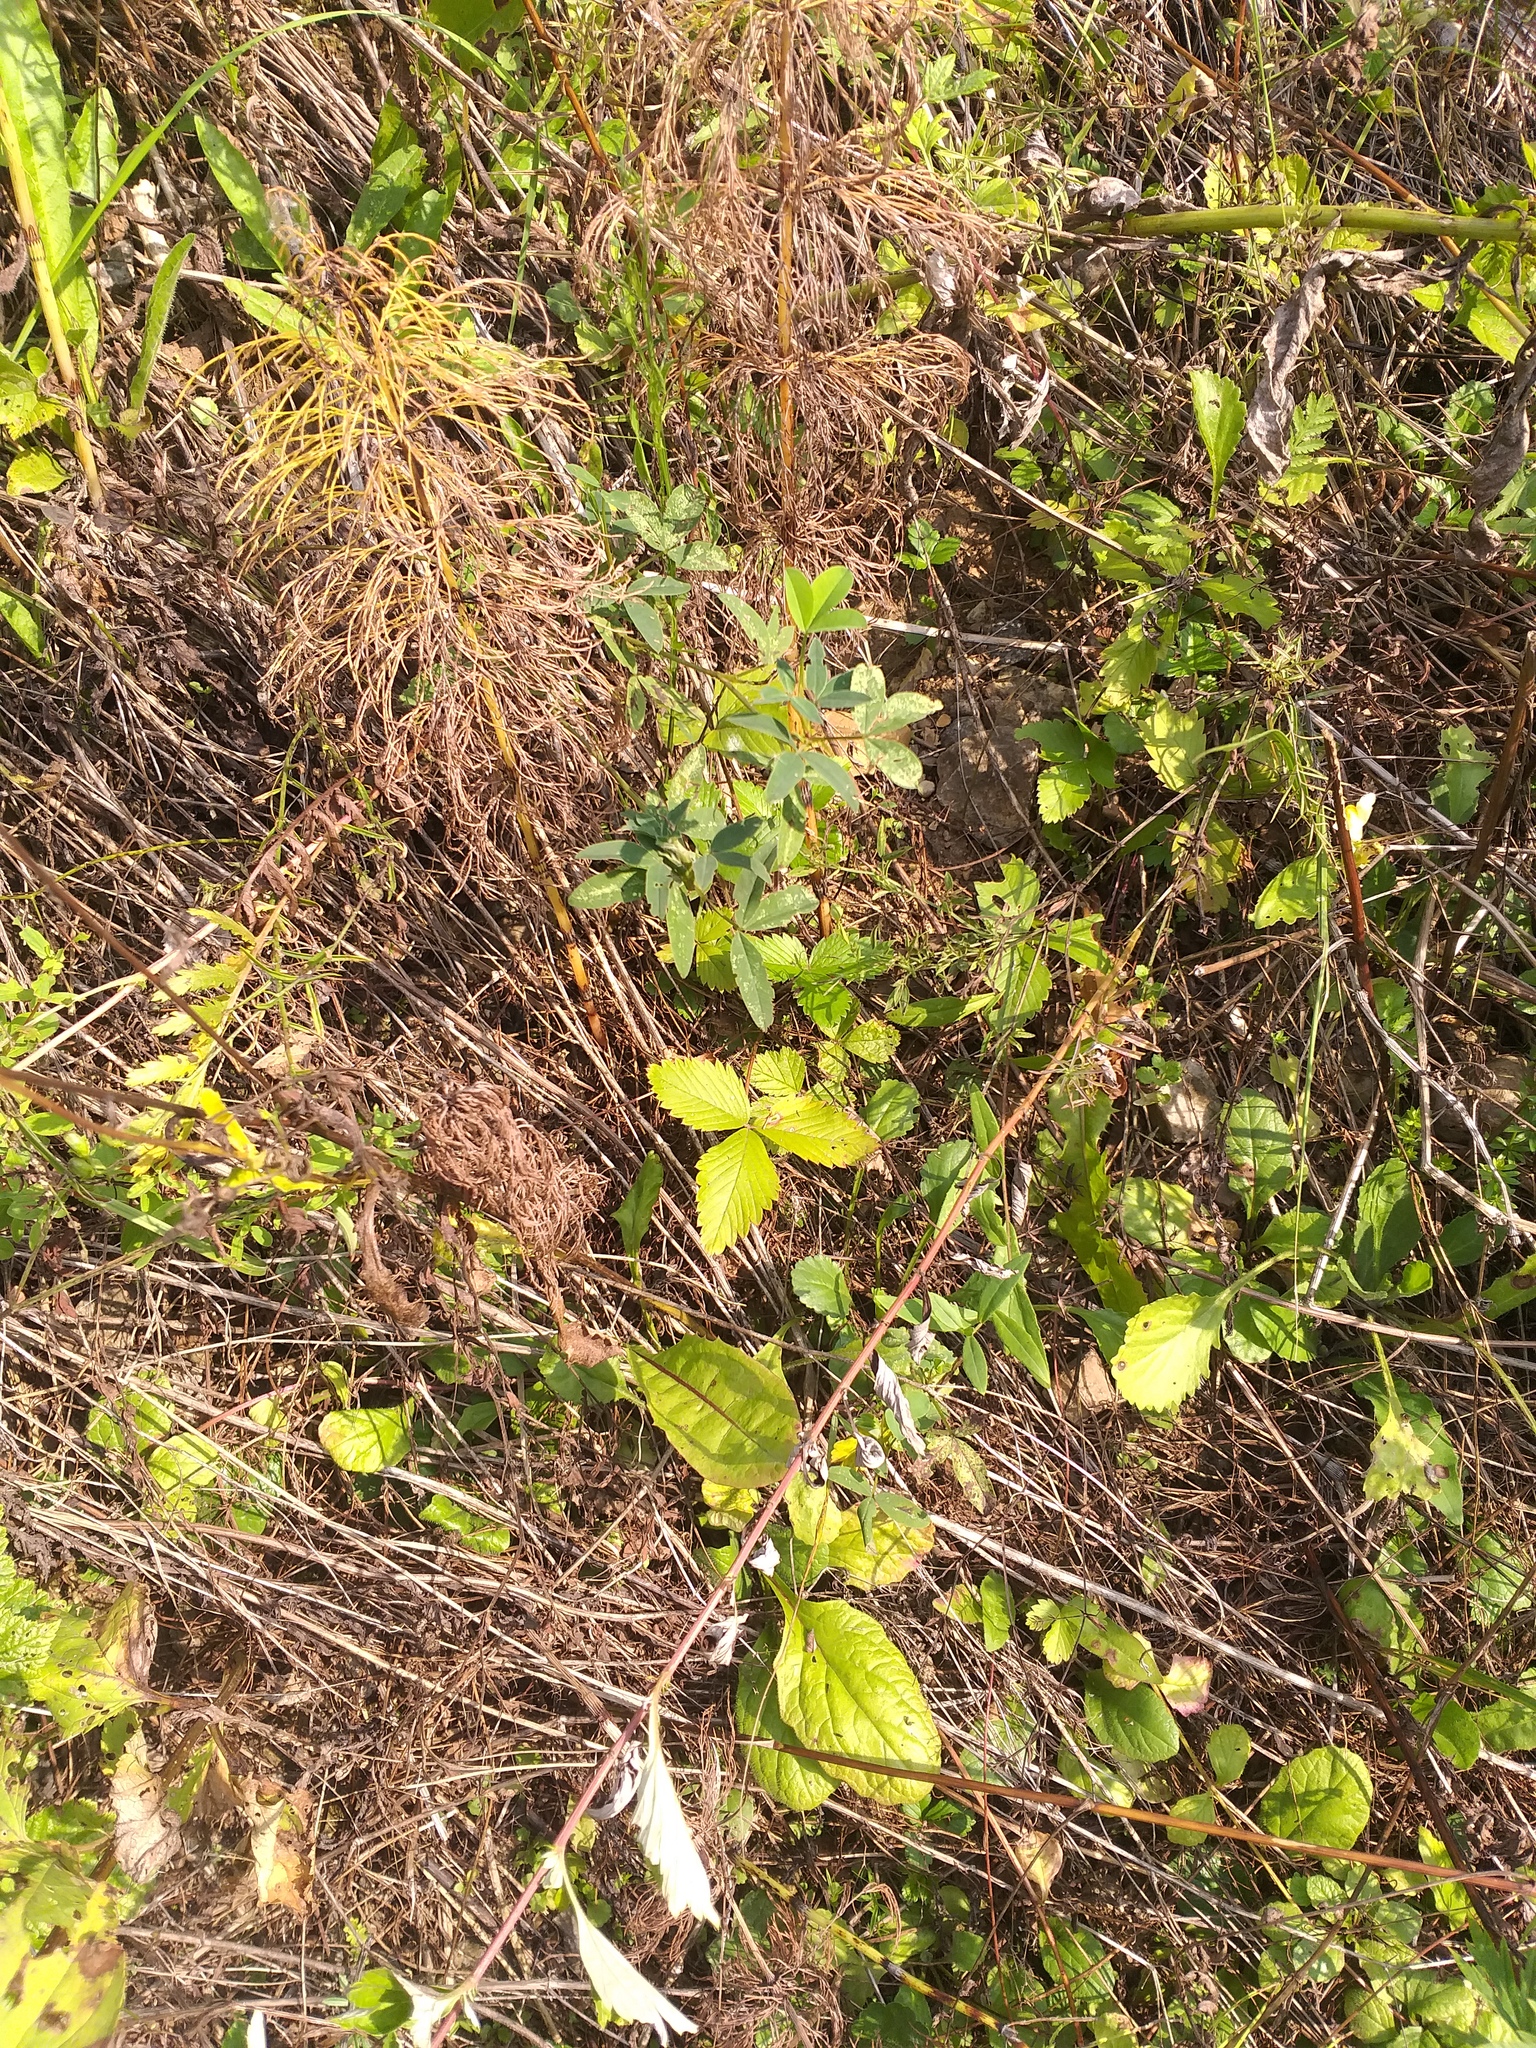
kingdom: Plantae
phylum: Tracheophyta
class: Magnoliopsida
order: Rosales
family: Rosaceae
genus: Fragaria
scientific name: Fragaria vesca
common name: Wild strawberry
